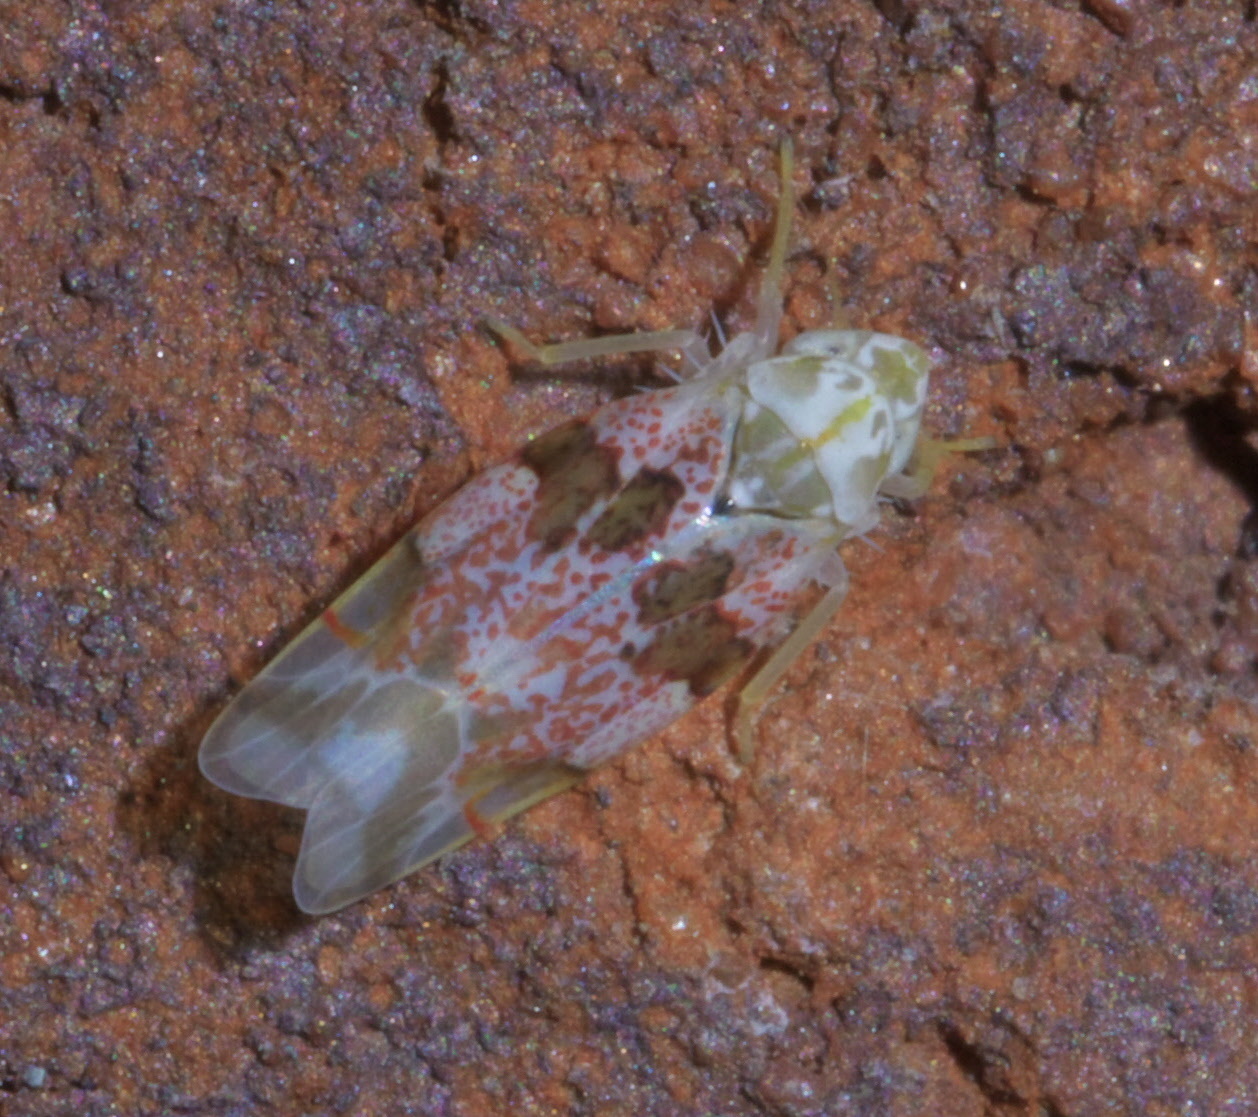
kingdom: Animalia
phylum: Arthropoda
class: Insecta
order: Hemiptera
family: Cicadellidae
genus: Hymetta
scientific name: Hymetta anthisma
